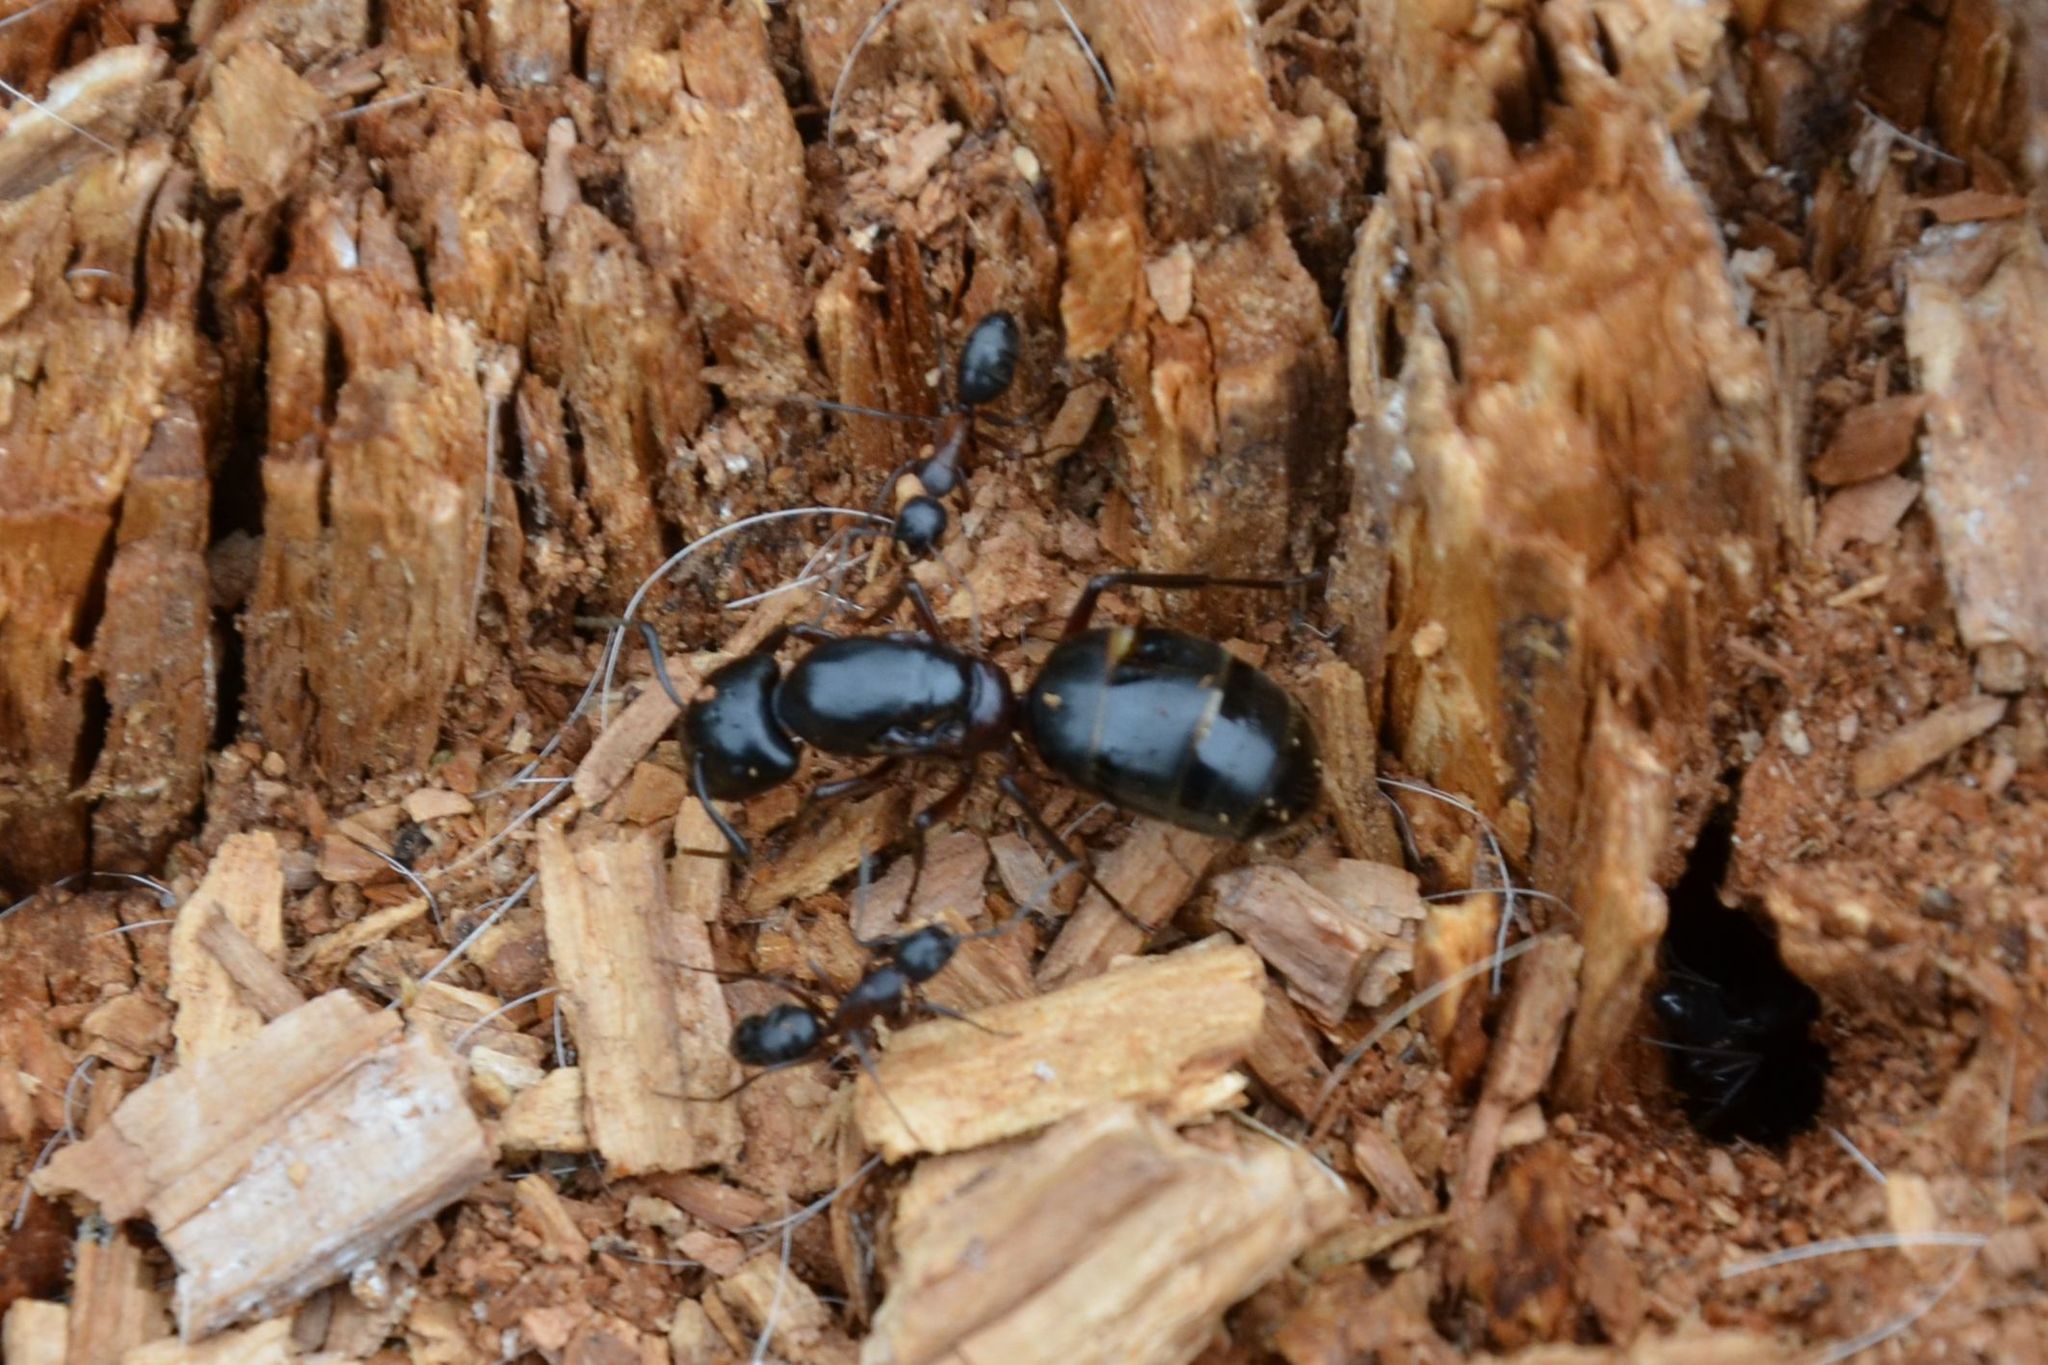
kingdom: Animalia
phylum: Arthropoda
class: Insecta
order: Hymenoptera
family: Formicidae
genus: Camponotus
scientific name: Camponotus herculeanus
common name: Hercules ant
